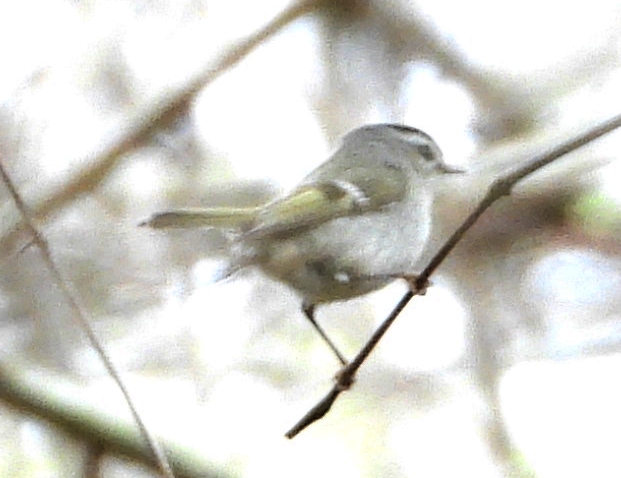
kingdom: Animalia
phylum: Chordata
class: Aves
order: Passeriformes
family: Regulidae
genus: Regulus
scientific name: Regulus satrapa
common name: Golden-crowned kinglet
